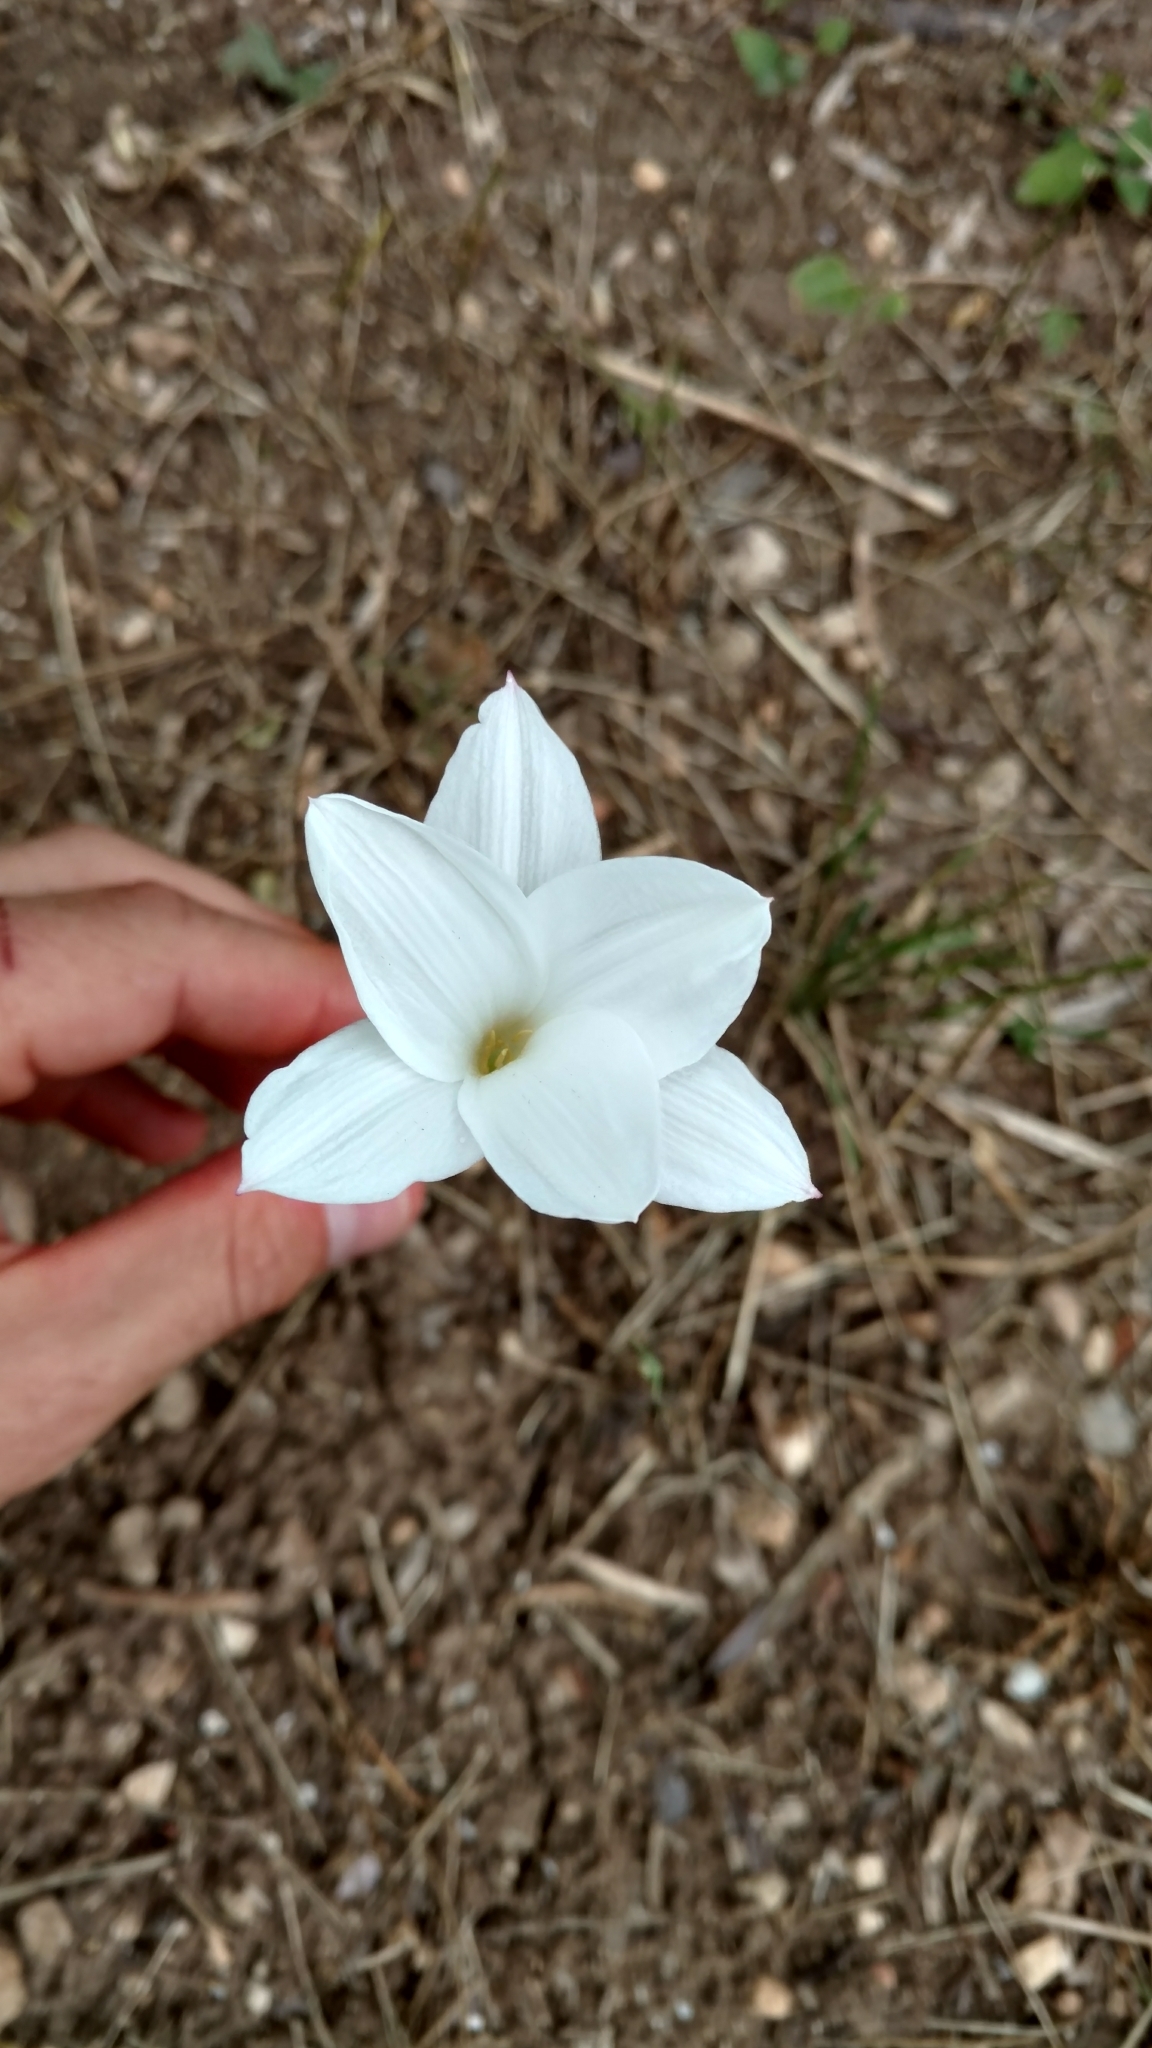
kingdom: Plantae
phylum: Tracheophyta
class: Liliopsida
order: Asparagales
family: Amaryllidaceae
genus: Zephyranthes
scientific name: Zephyranthes drummondii
